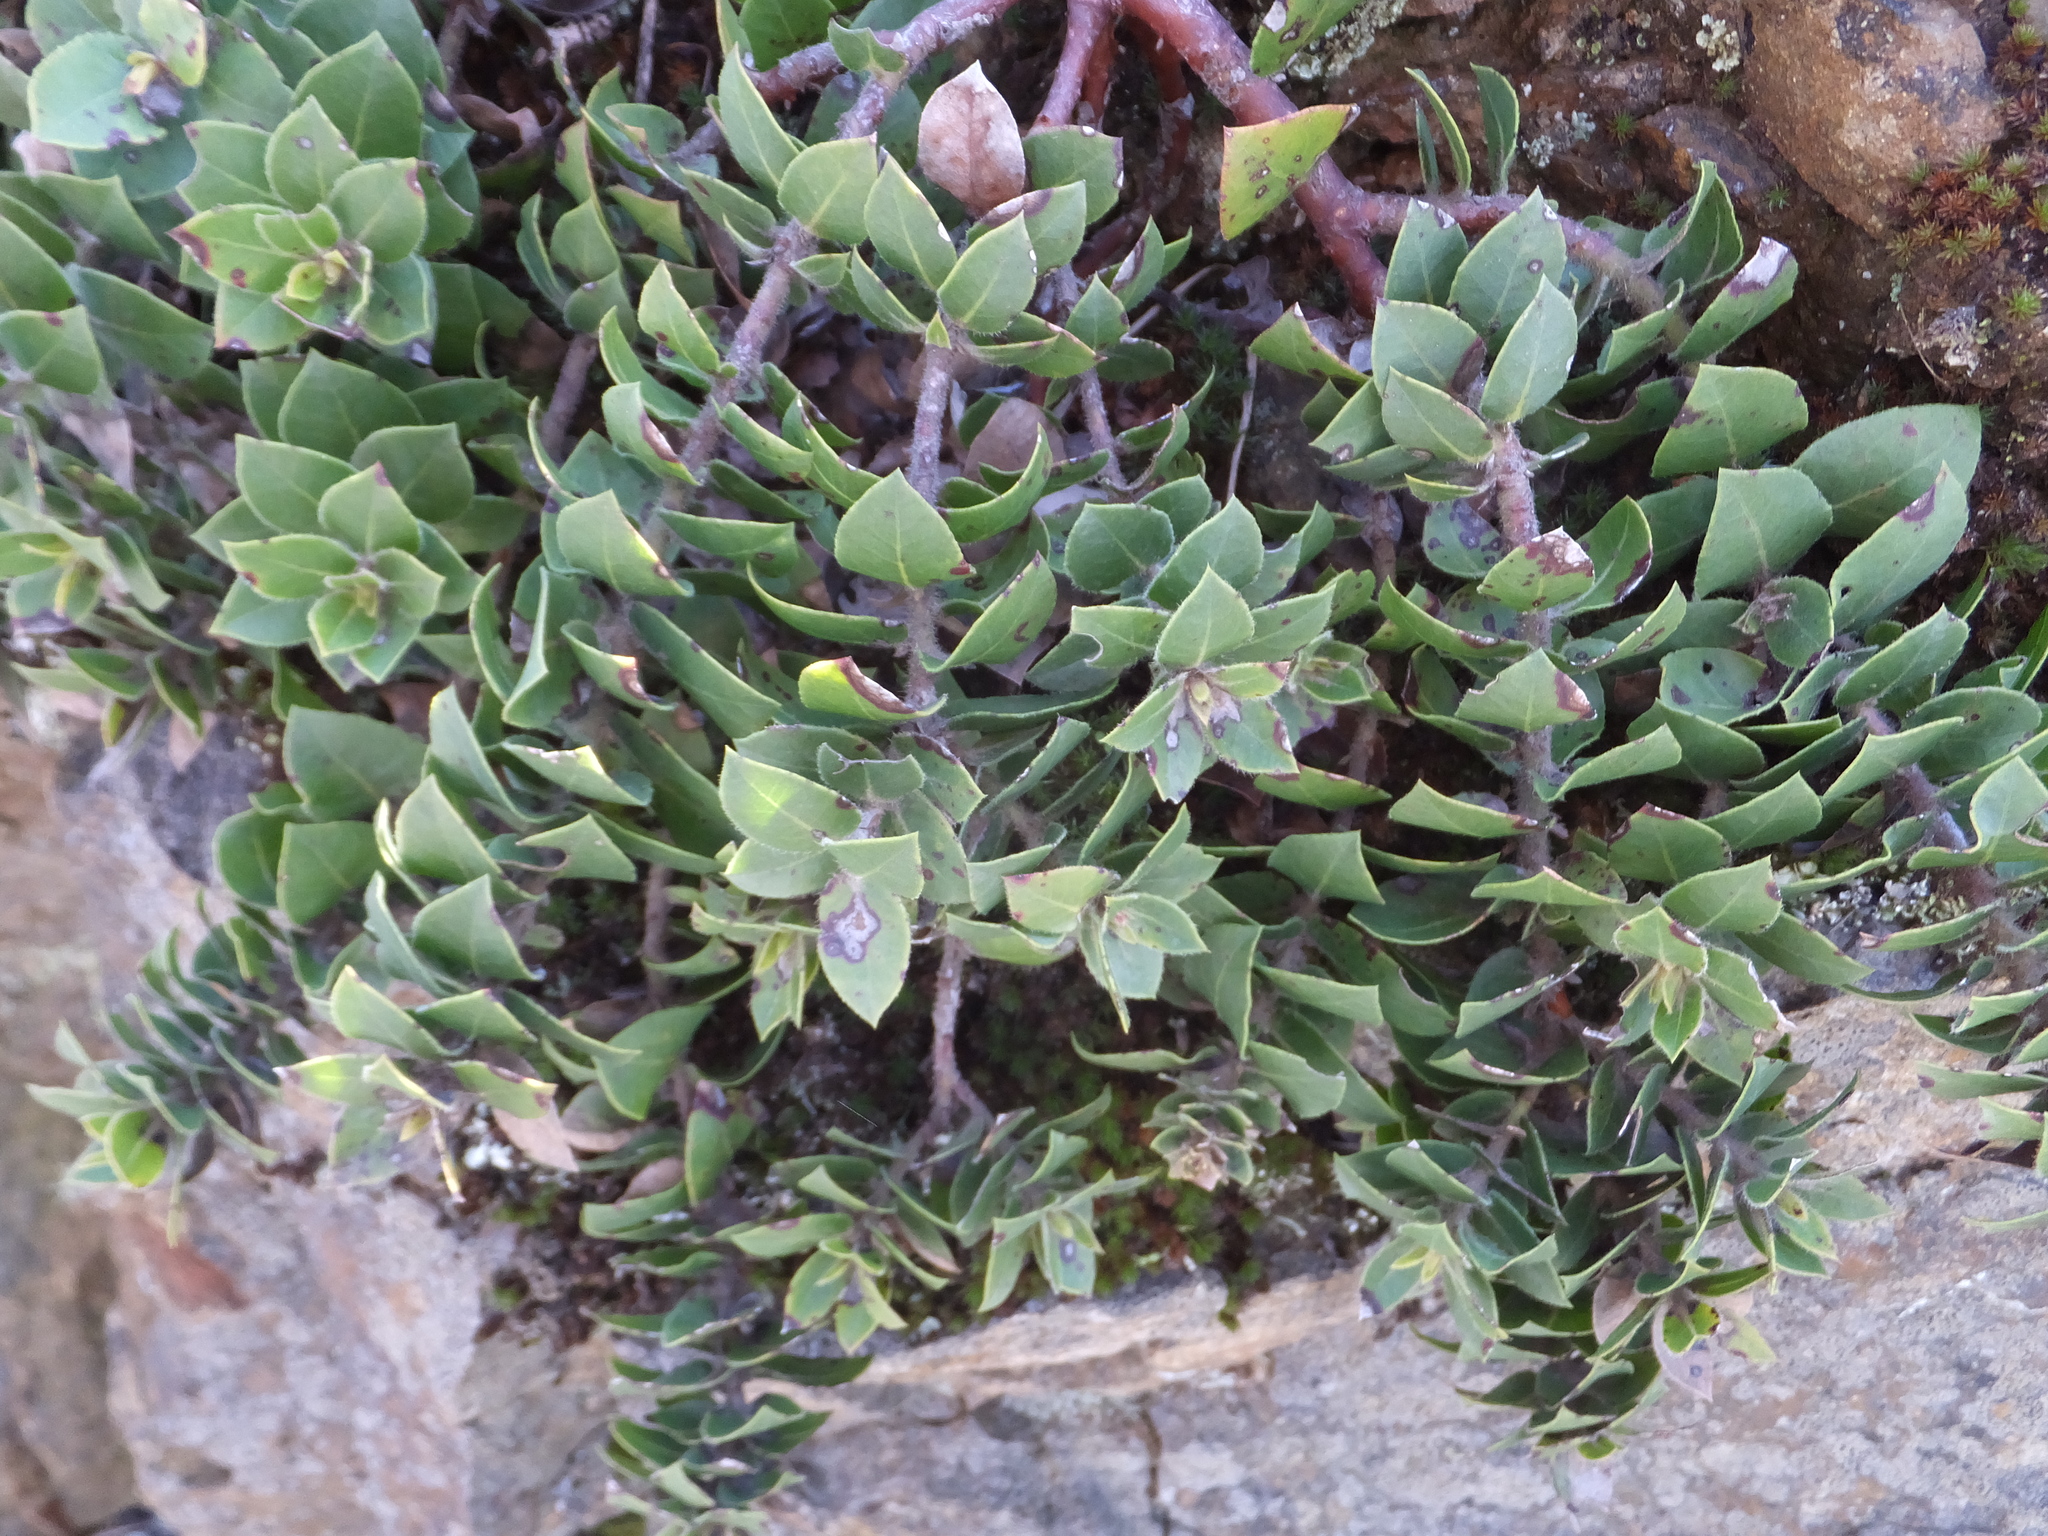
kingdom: Plantae
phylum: Tracheophyta
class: Magnoliopsida
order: Ericales
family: Ericaceae
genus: Arctostaphylos
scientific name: Arctostaphylos imbricata
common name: San bruno mountain manzanita
